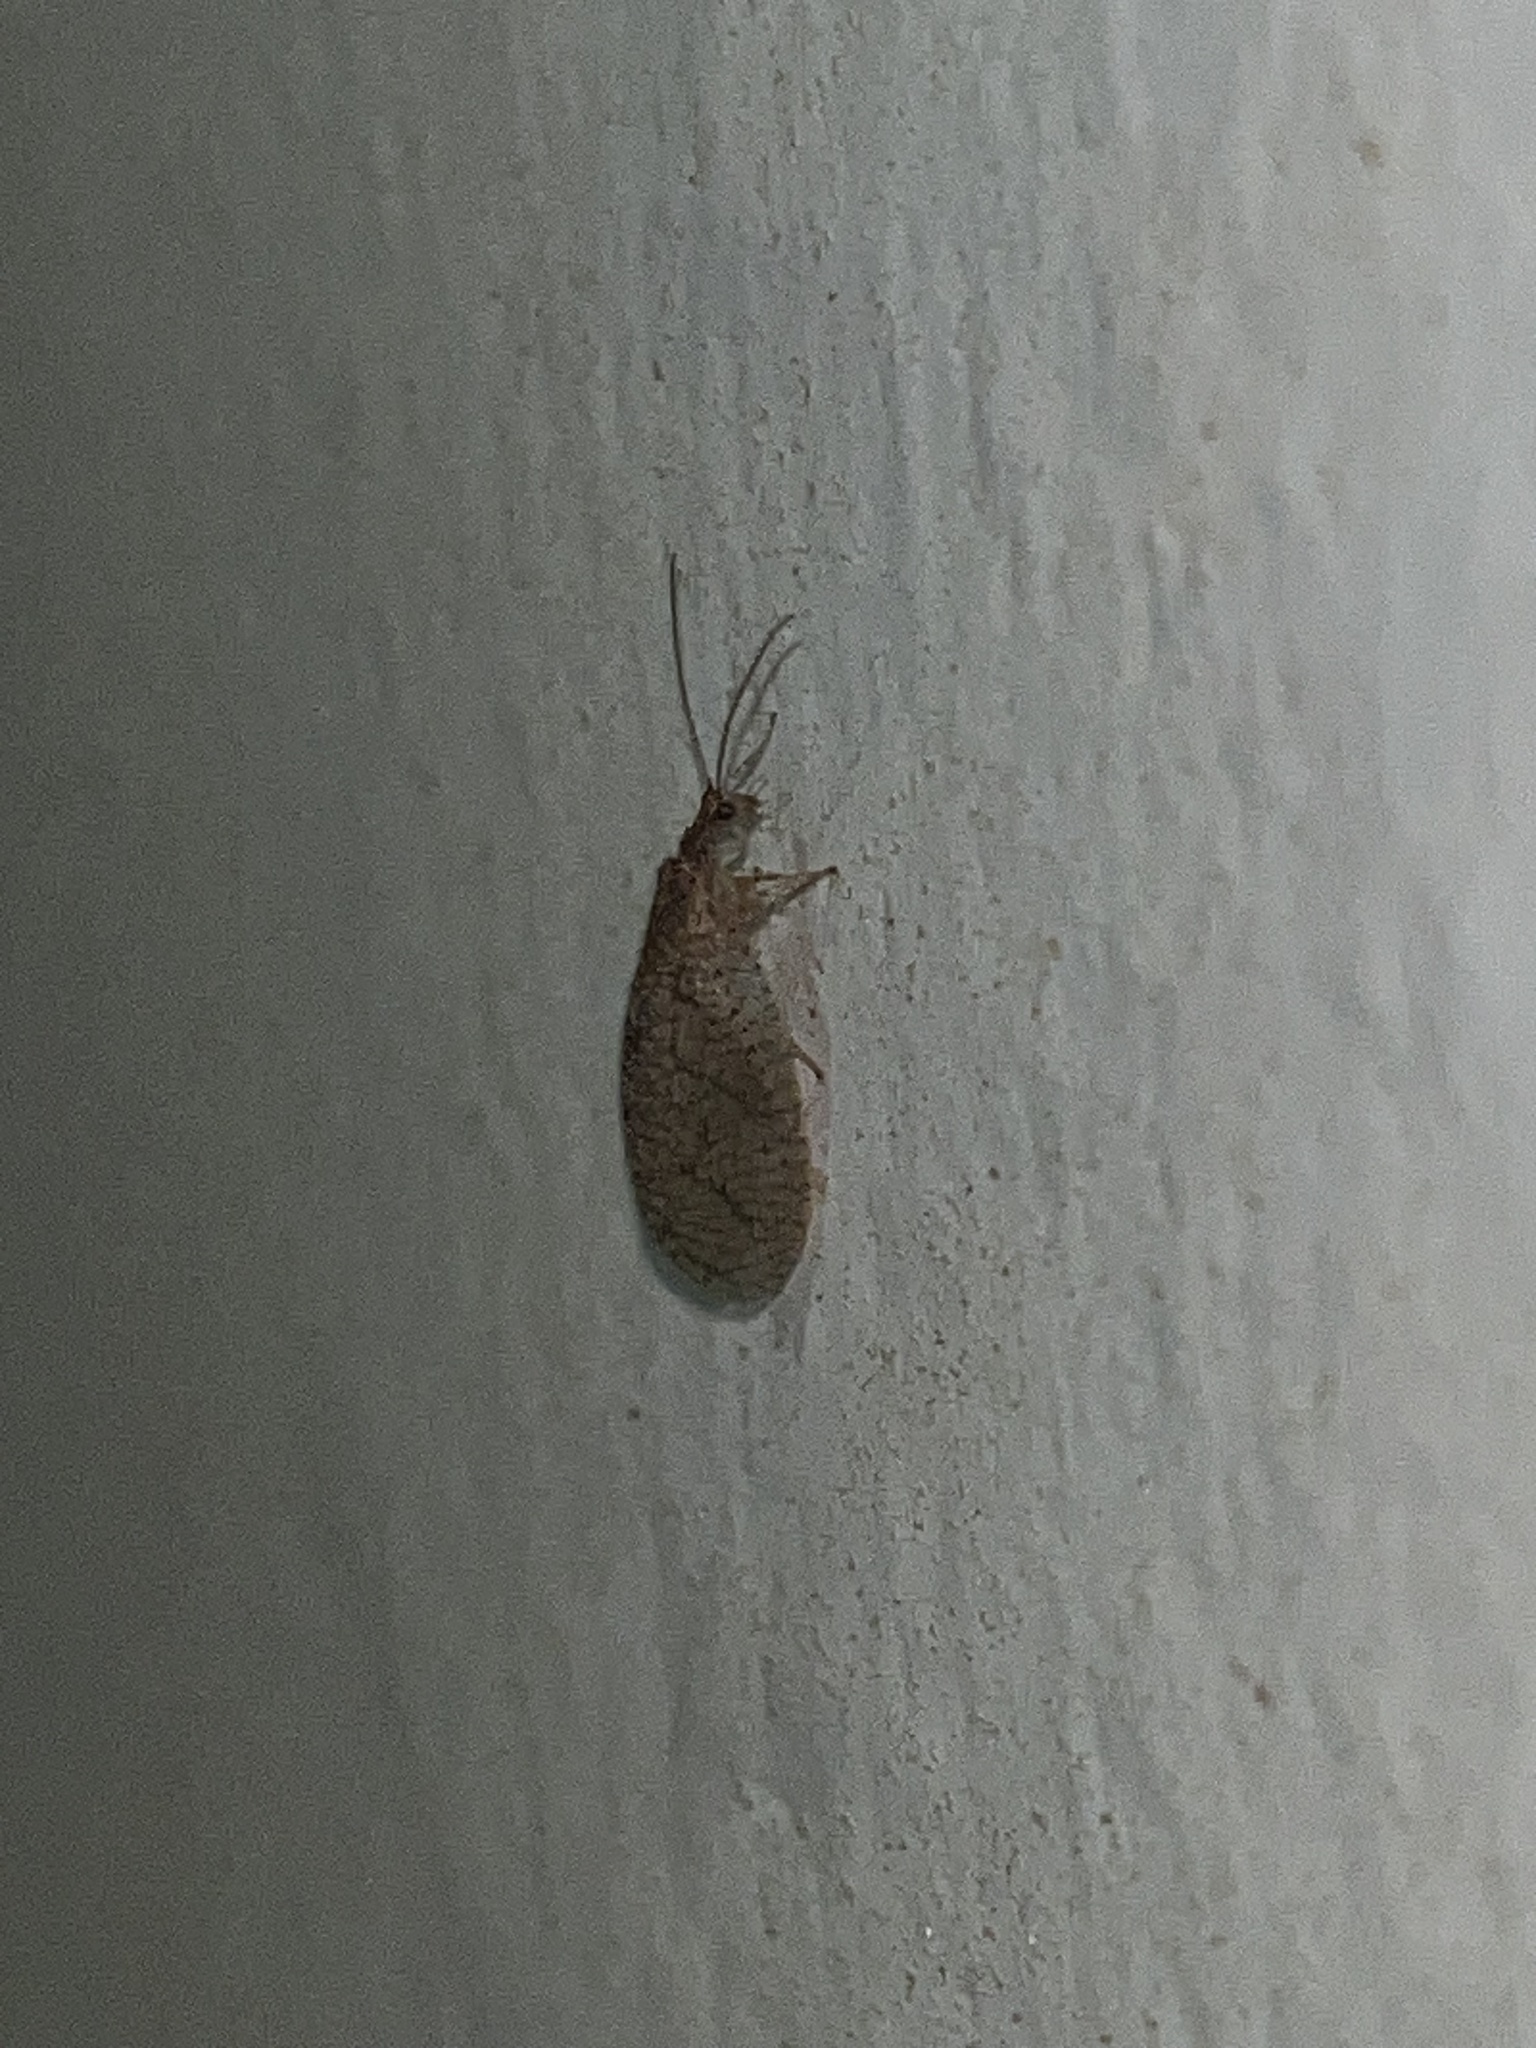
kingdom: Animalia
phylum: Arthropoda
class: Insecta
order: Neuroptera
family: Hemerobiidae
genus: Micromus
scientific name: Micromus posticus
